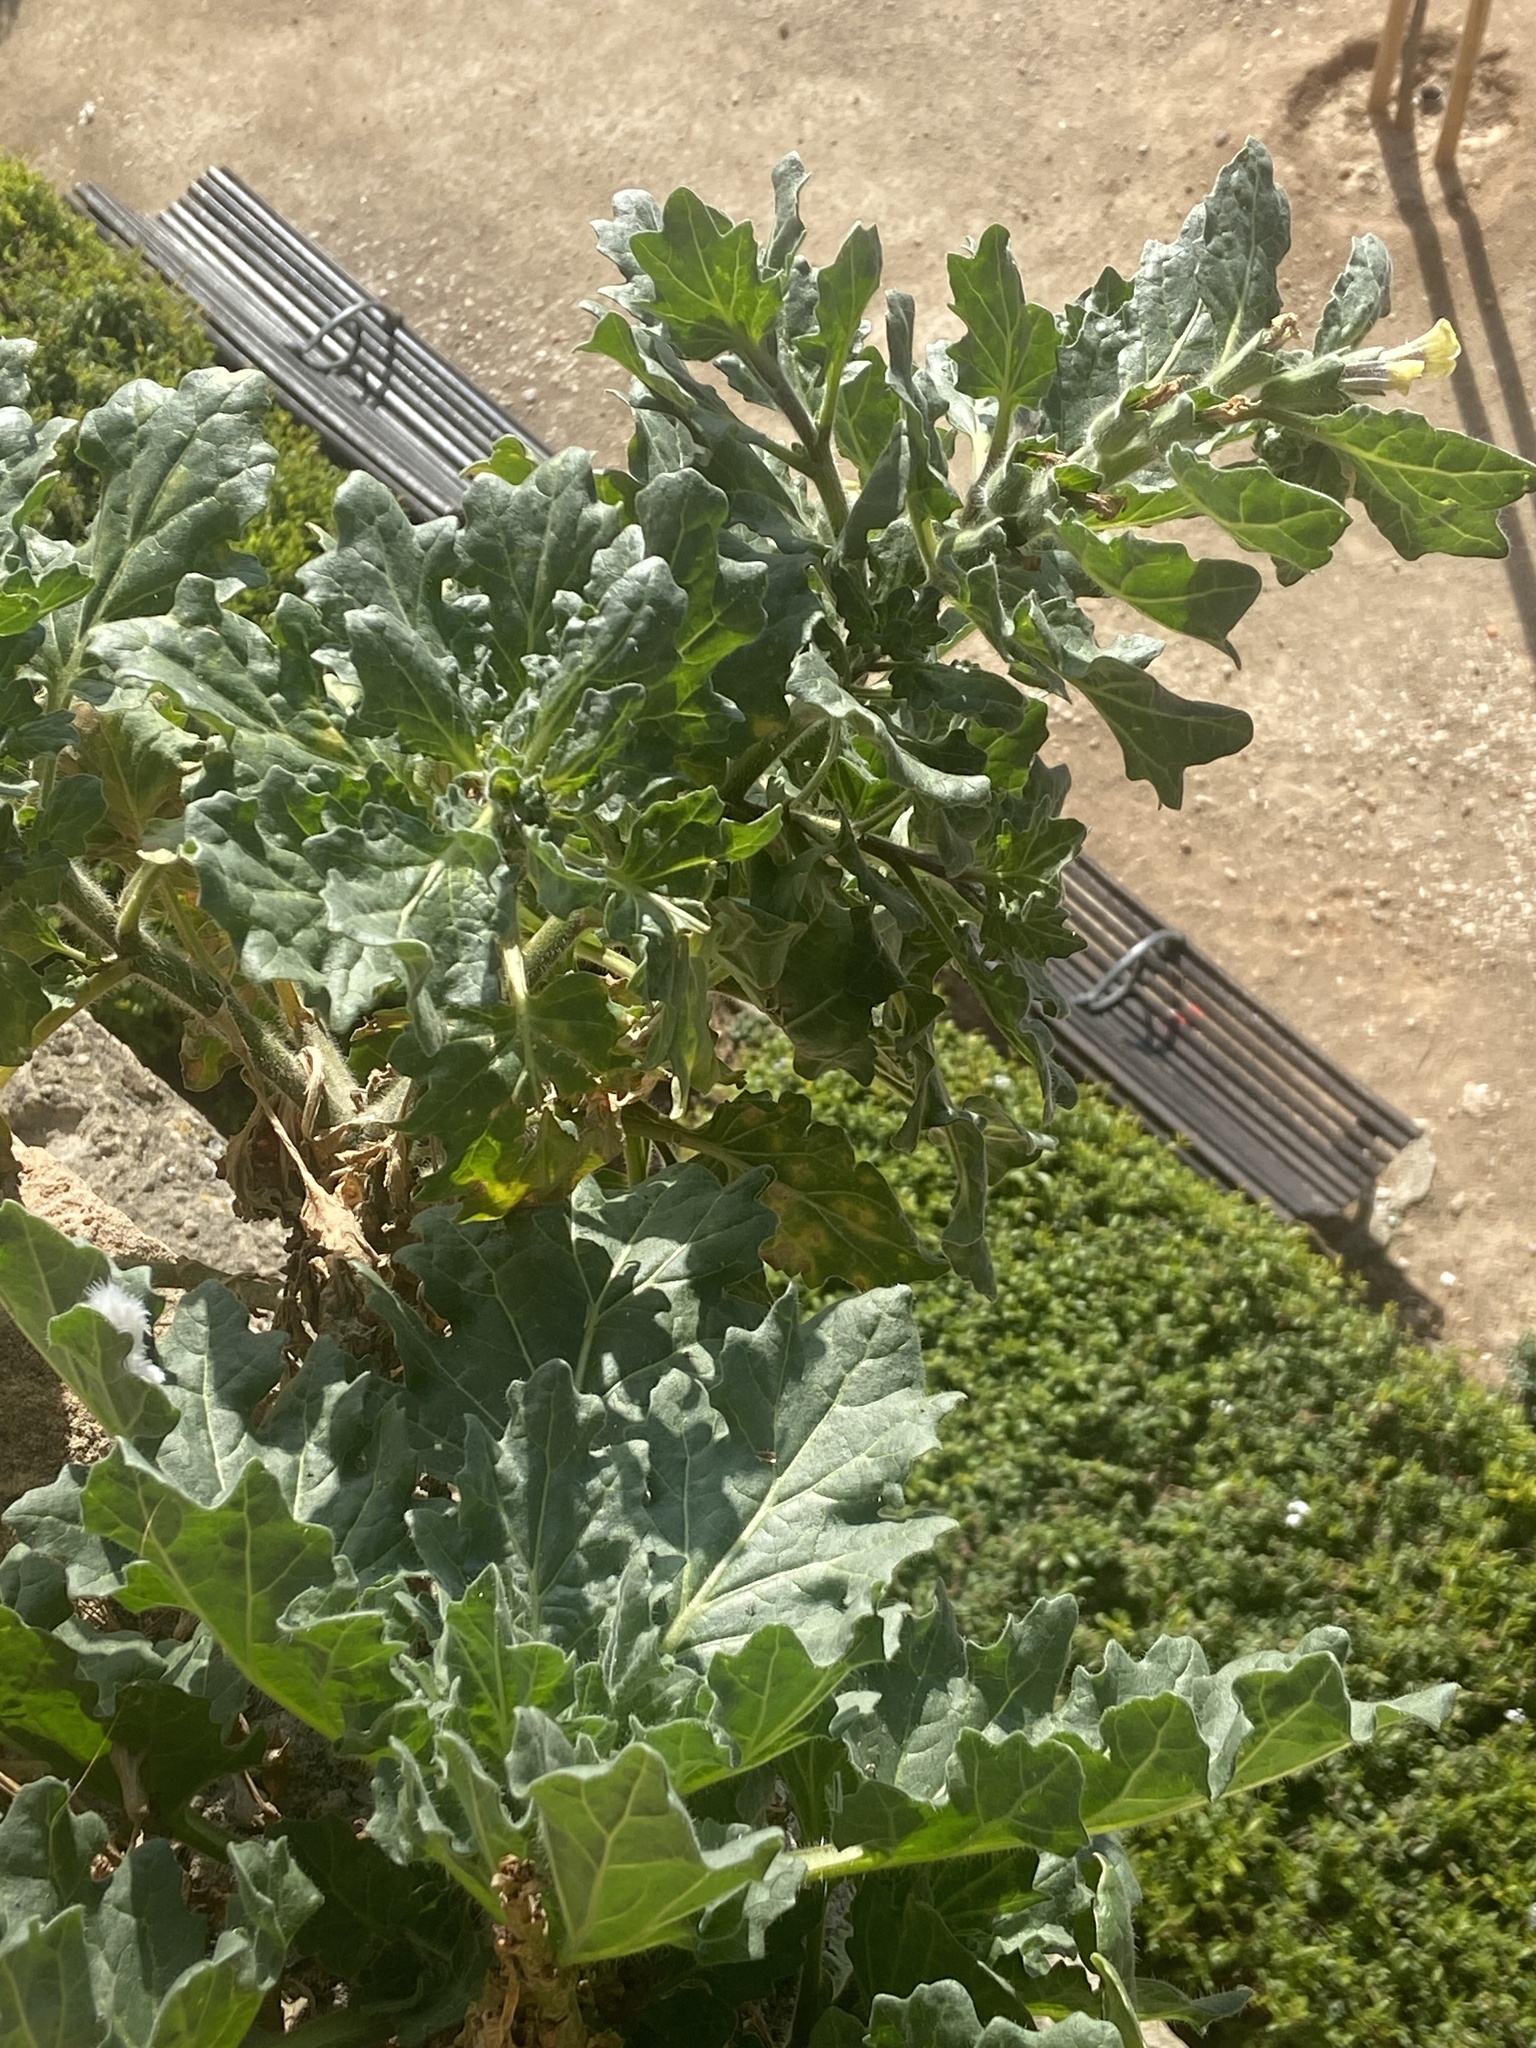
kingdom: Plantae
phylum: Tracheophyta
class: Magnoliopsida
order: Solanales
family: Solanaceae
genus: Hyoscyamus
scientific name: Hyoscyamus albus
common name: White henbane
